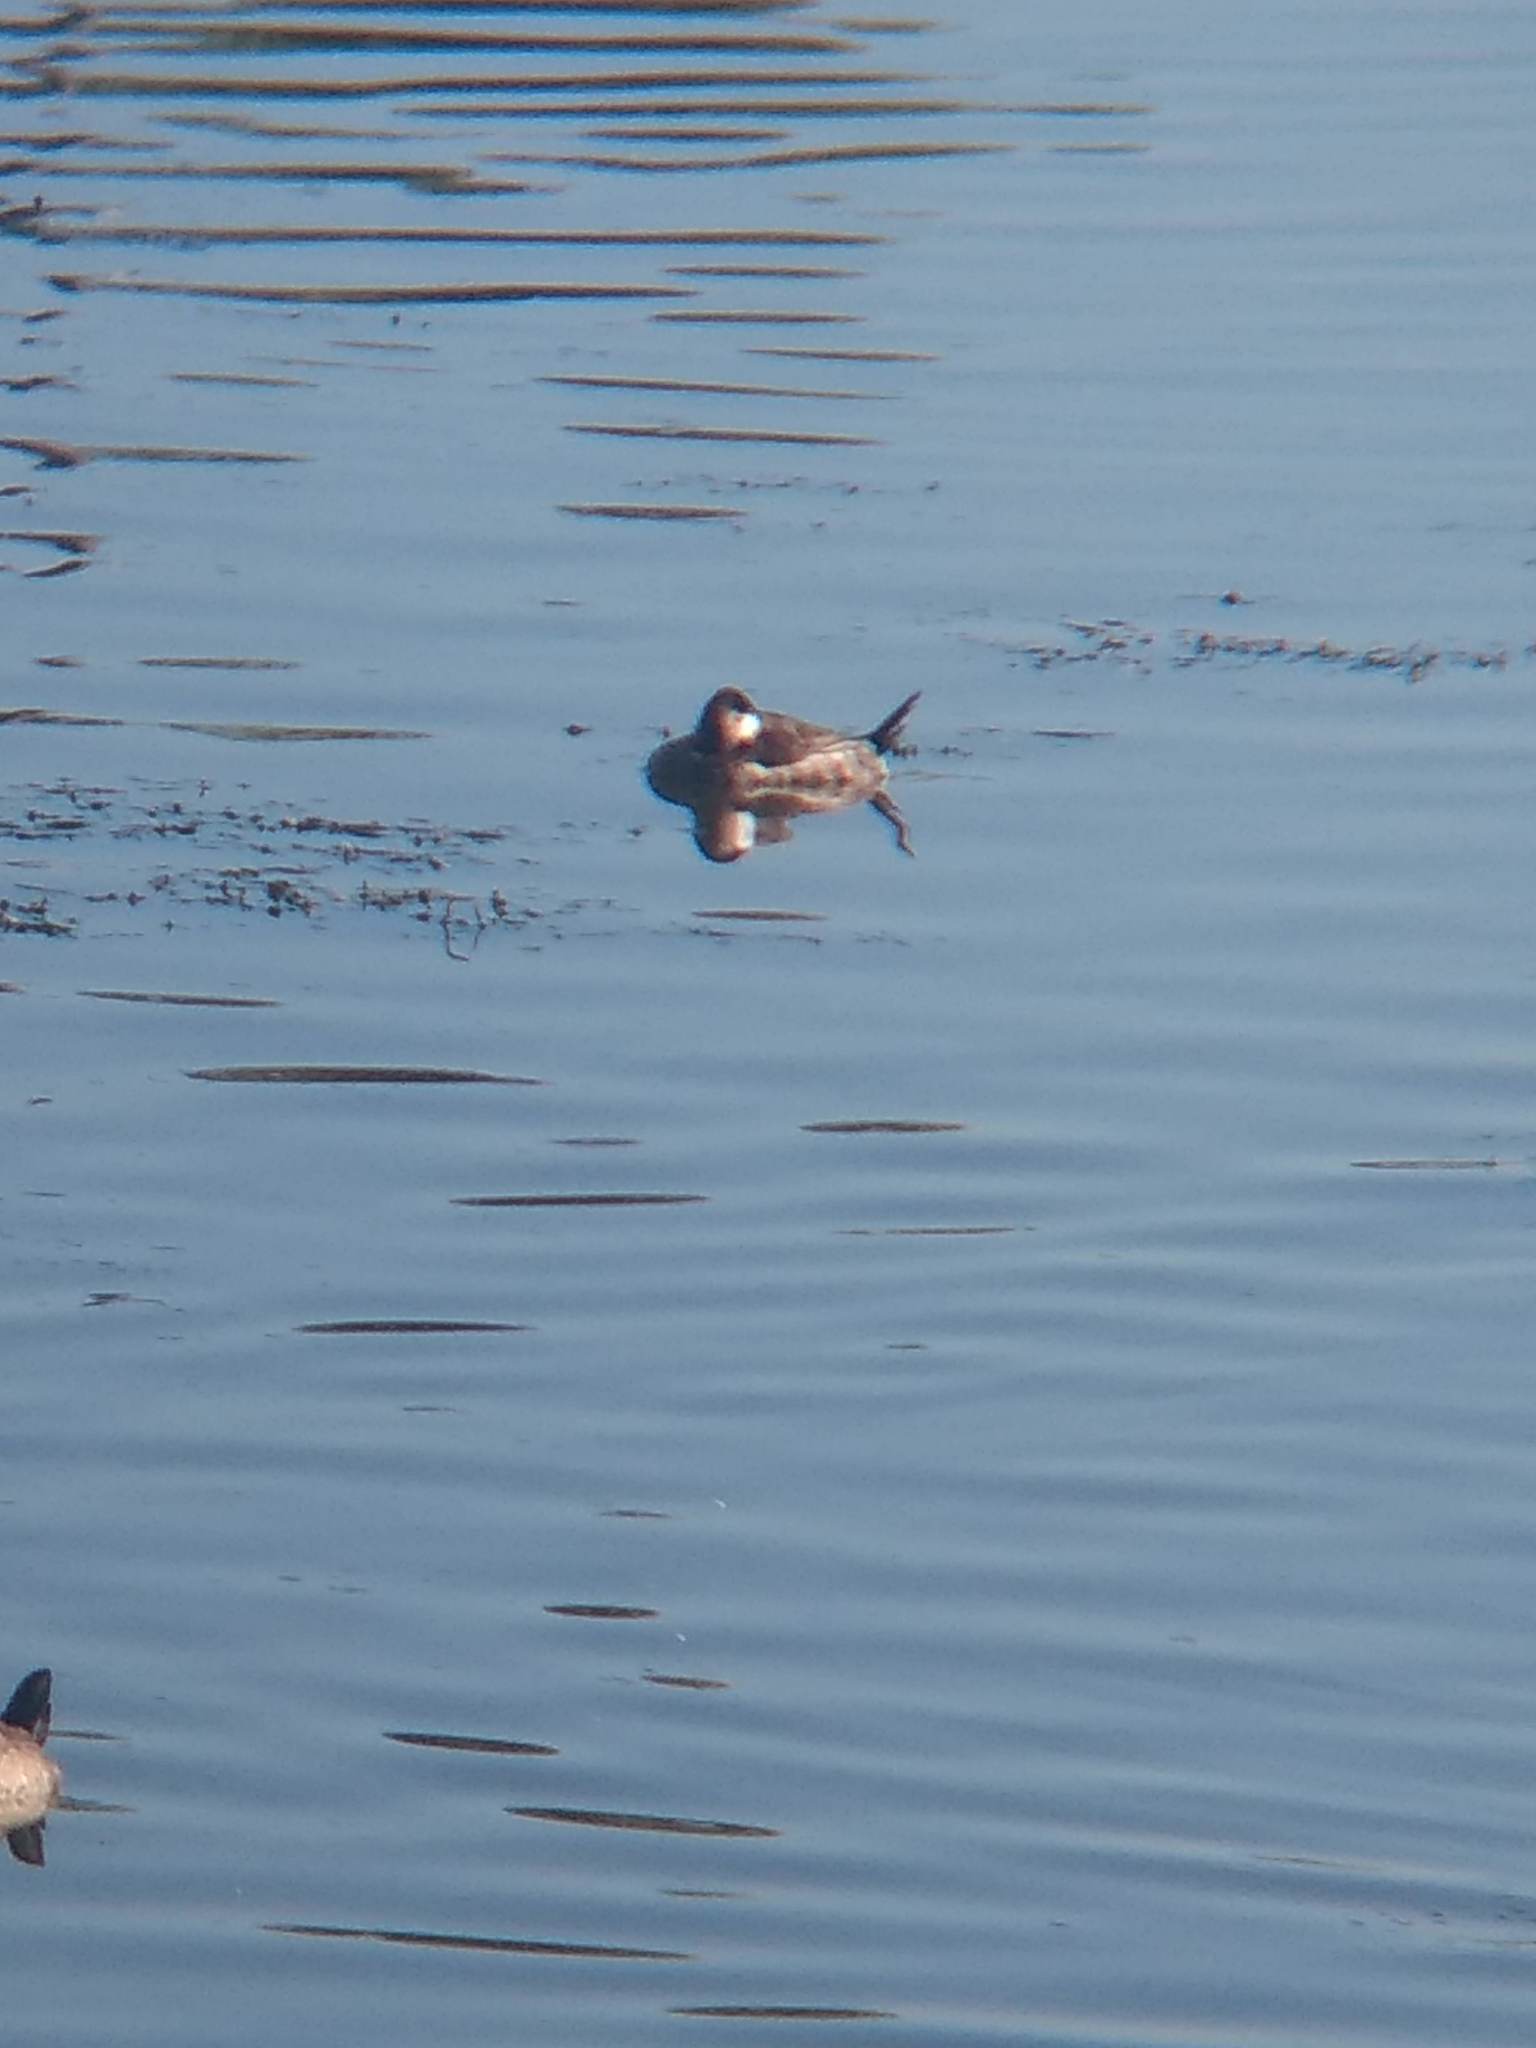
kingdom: Animalia
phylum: Chordata
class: Aves
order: Anseriformes
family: Anatidae
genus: Oxyura
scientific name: Oxyura jamaicensis
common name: Ruddy duck
